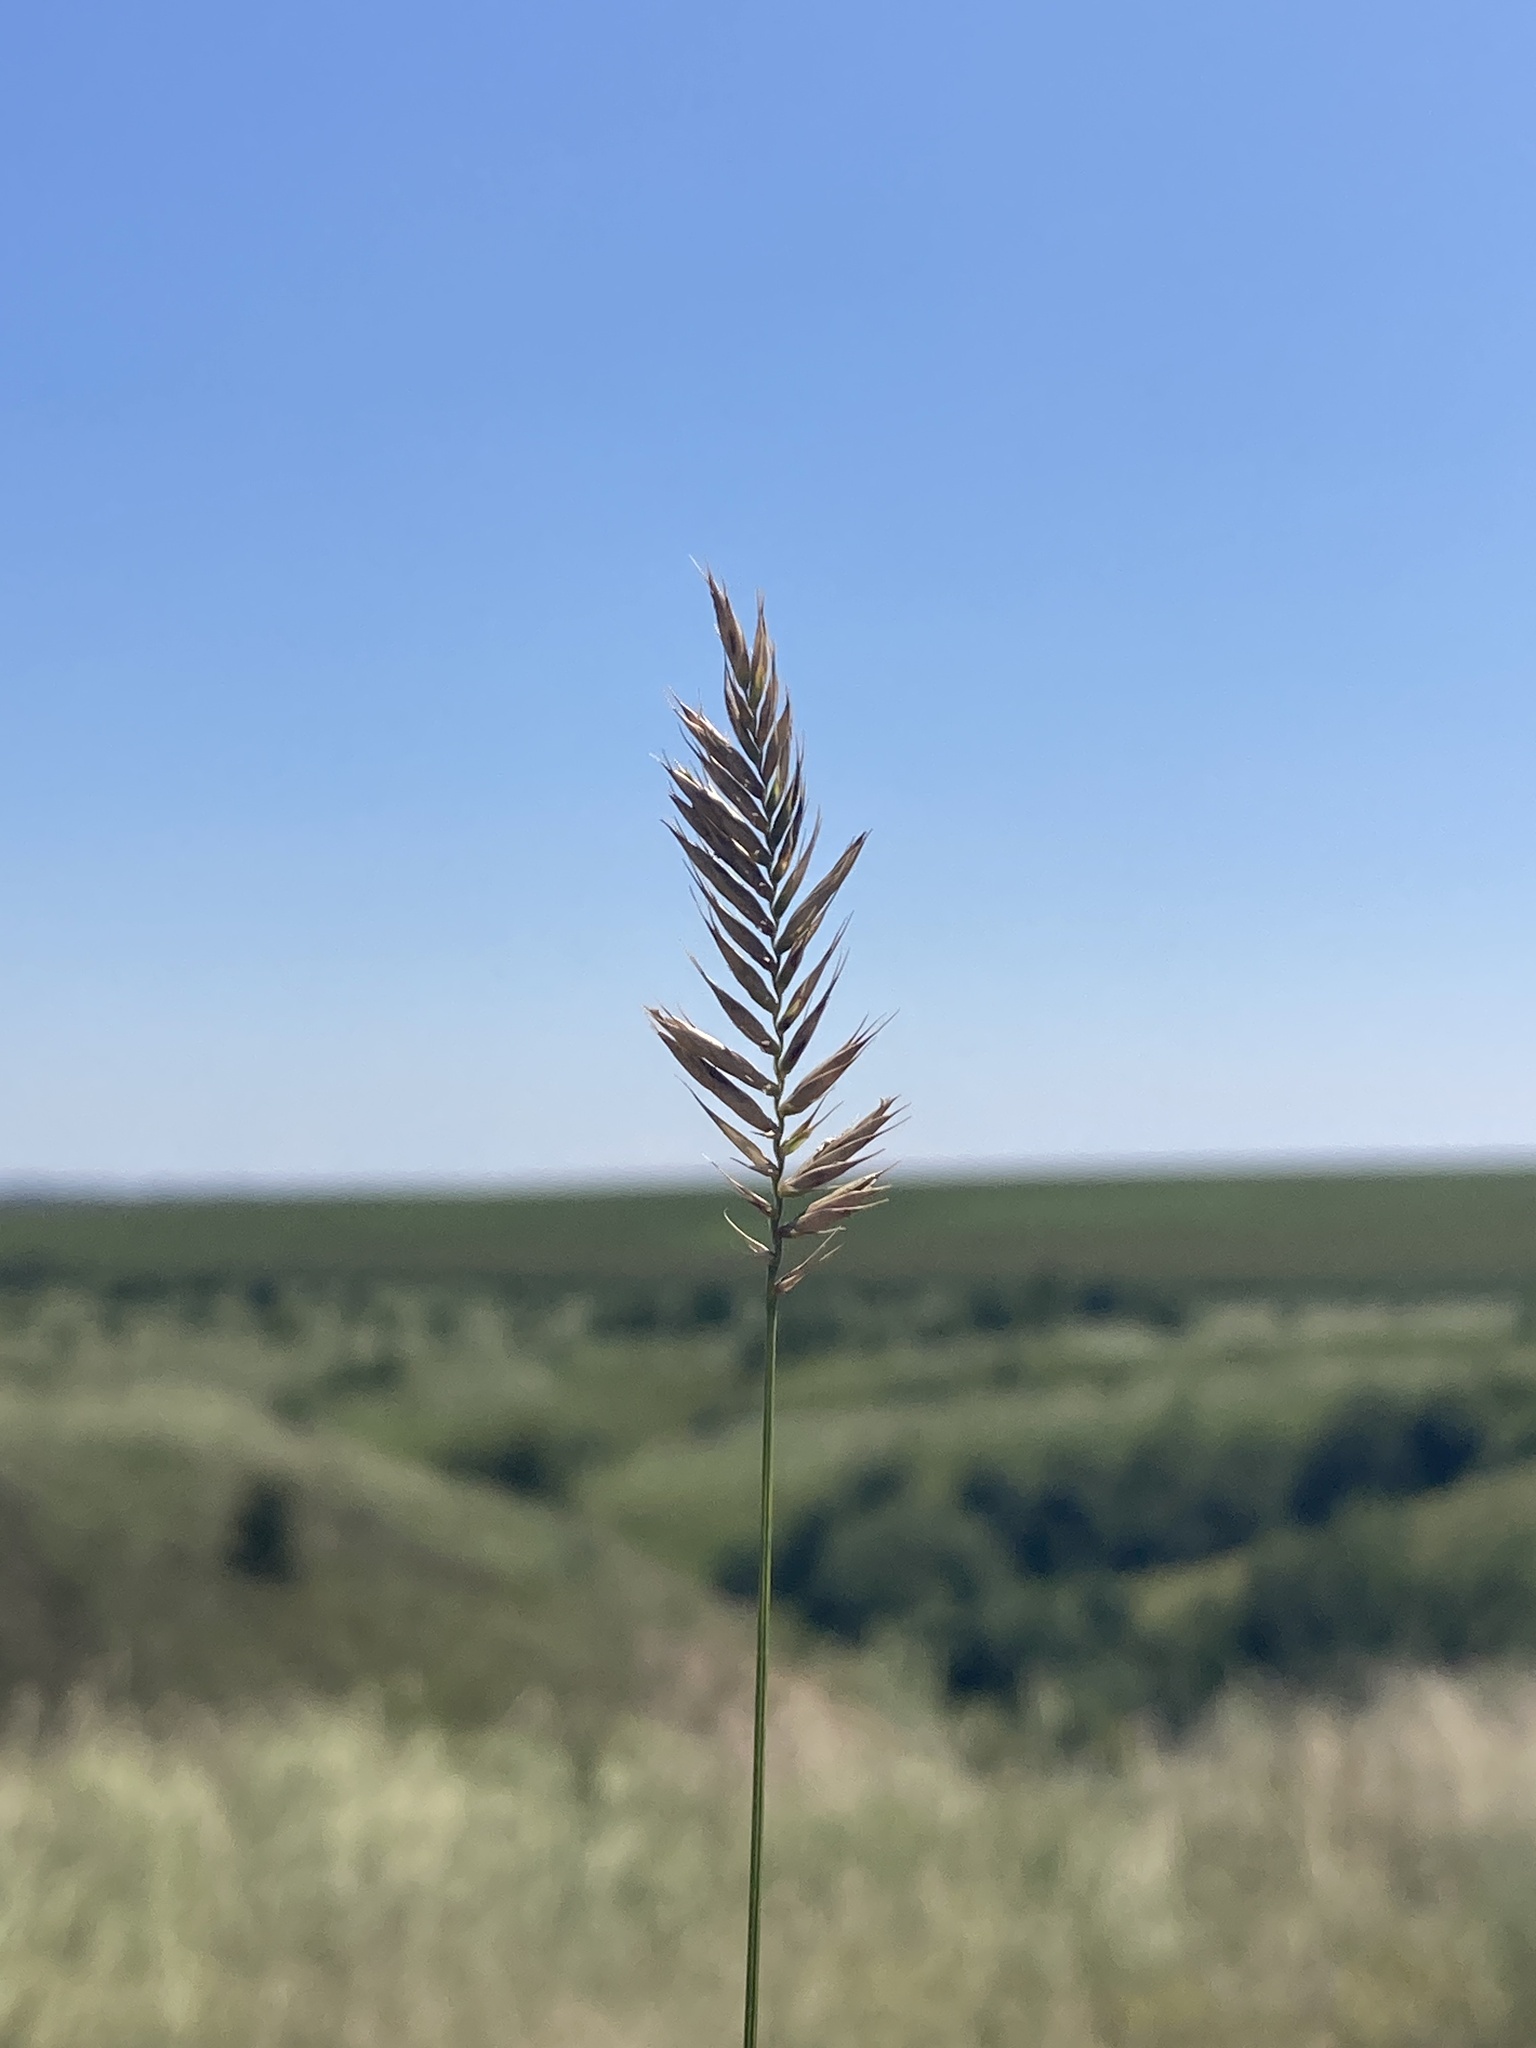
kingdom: Plantae
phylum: Tracheophyta
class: Liliopsida
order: Poales
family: Poaceae
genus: Agropyron
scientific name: Agropyron cristatum
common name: Crested wheatgrass
